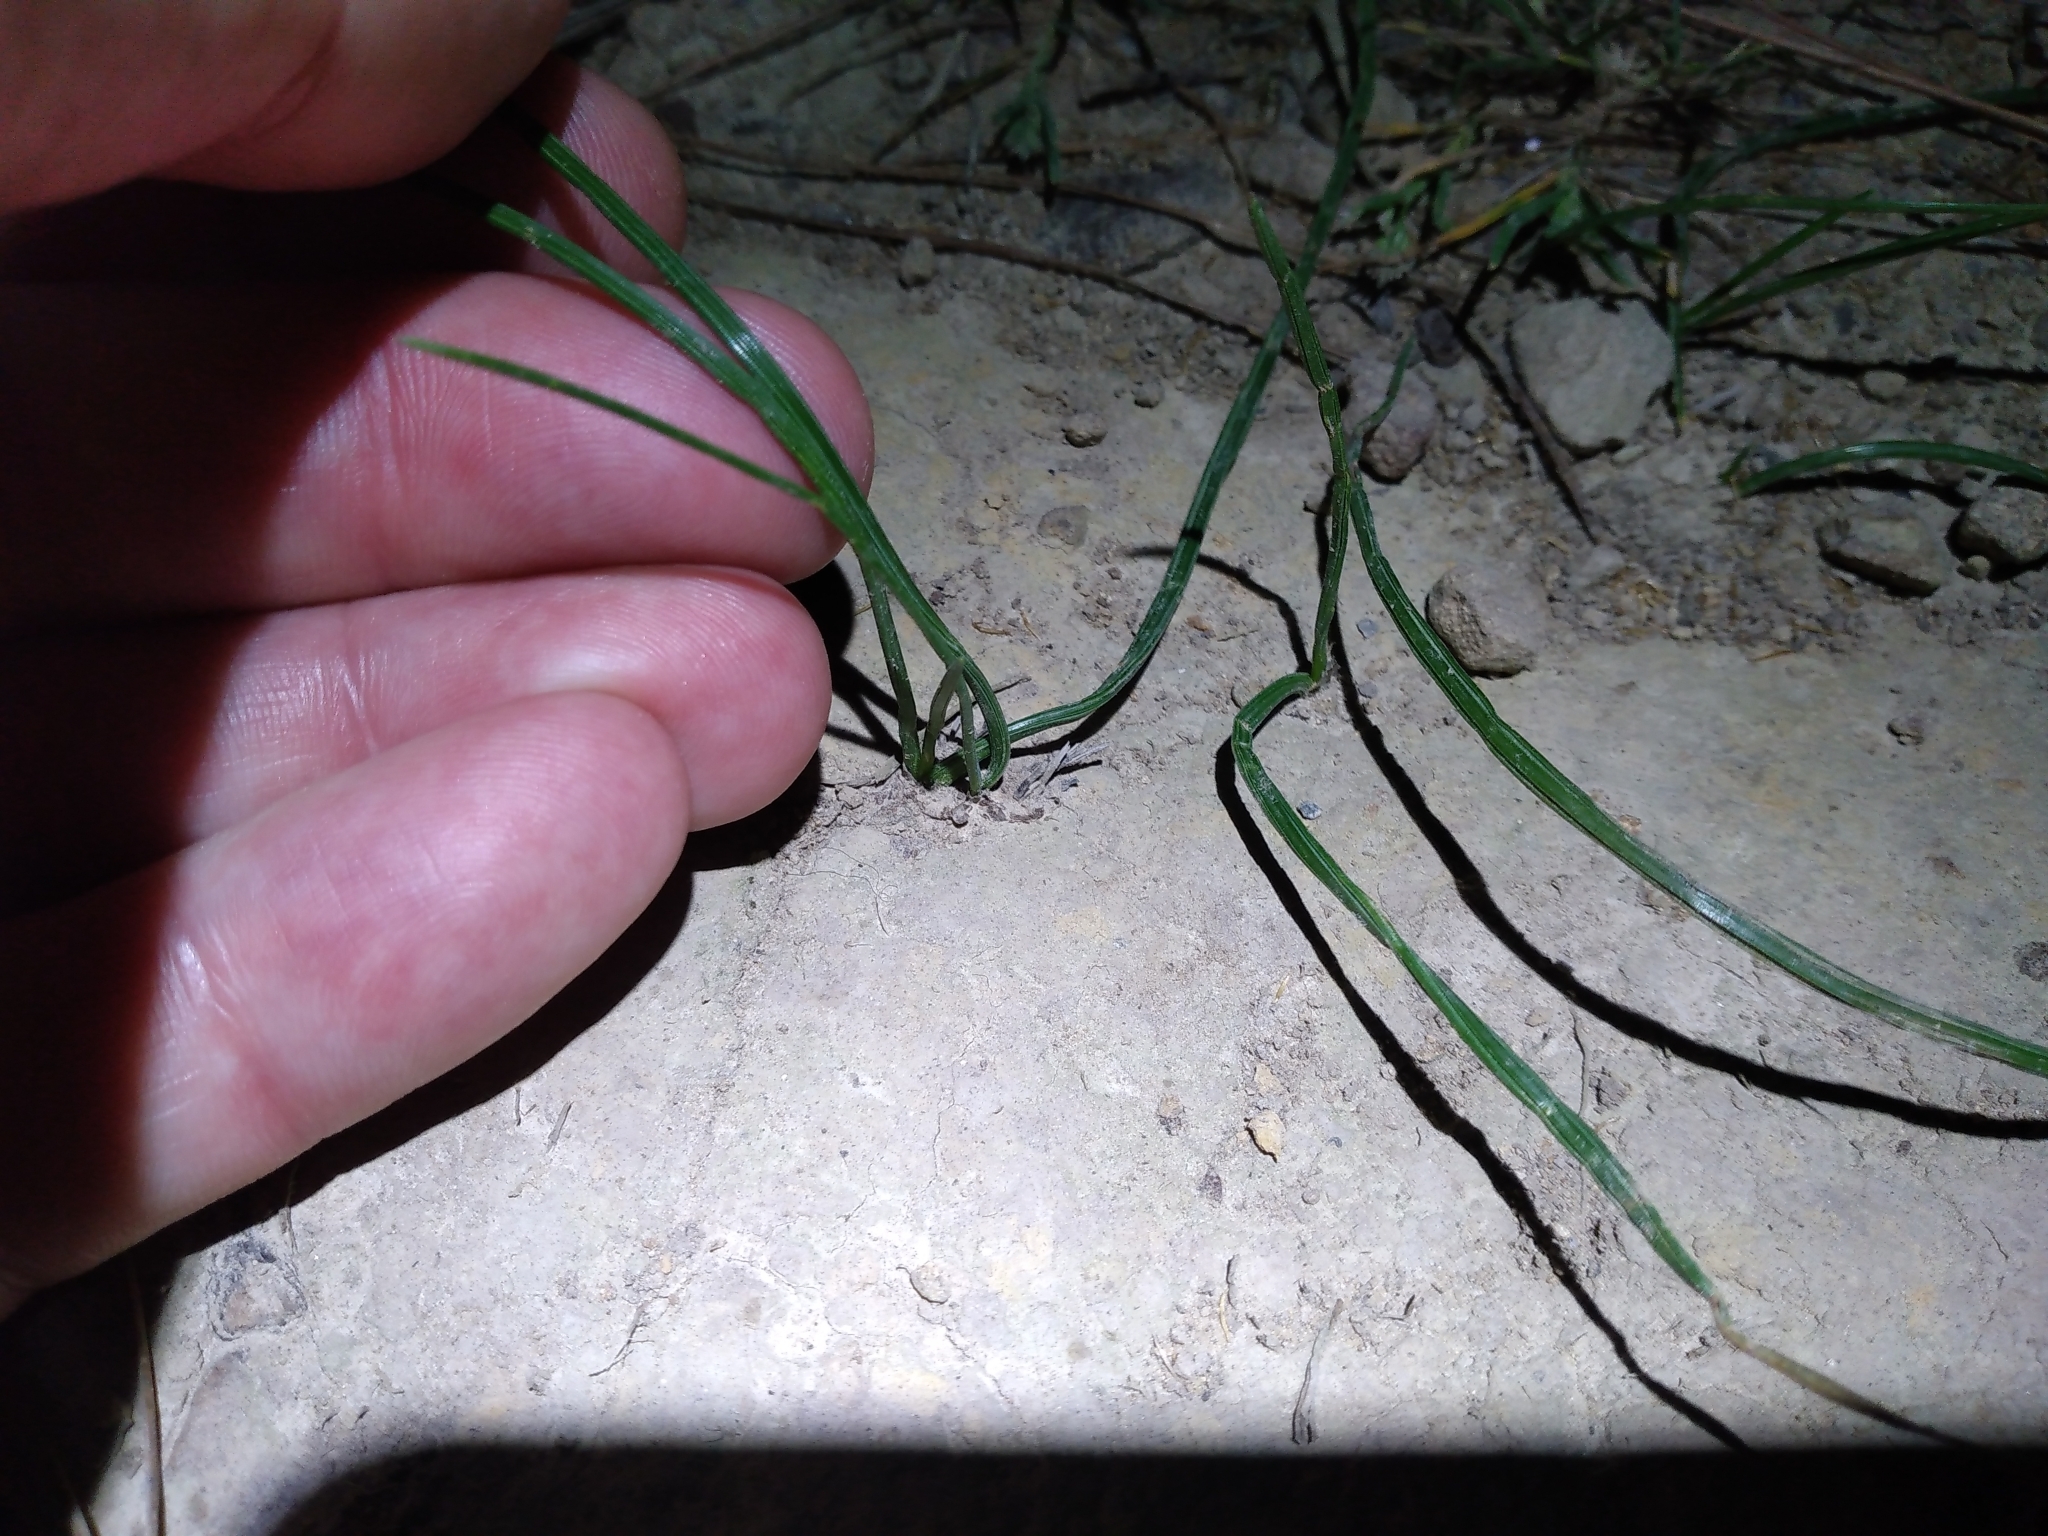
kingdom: Plantae
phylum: Tracheophyta
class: Liliopsida
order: Asparagales
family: Iridaceae
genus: Romulea
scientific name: Romulea rosea
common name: Oniongrass
